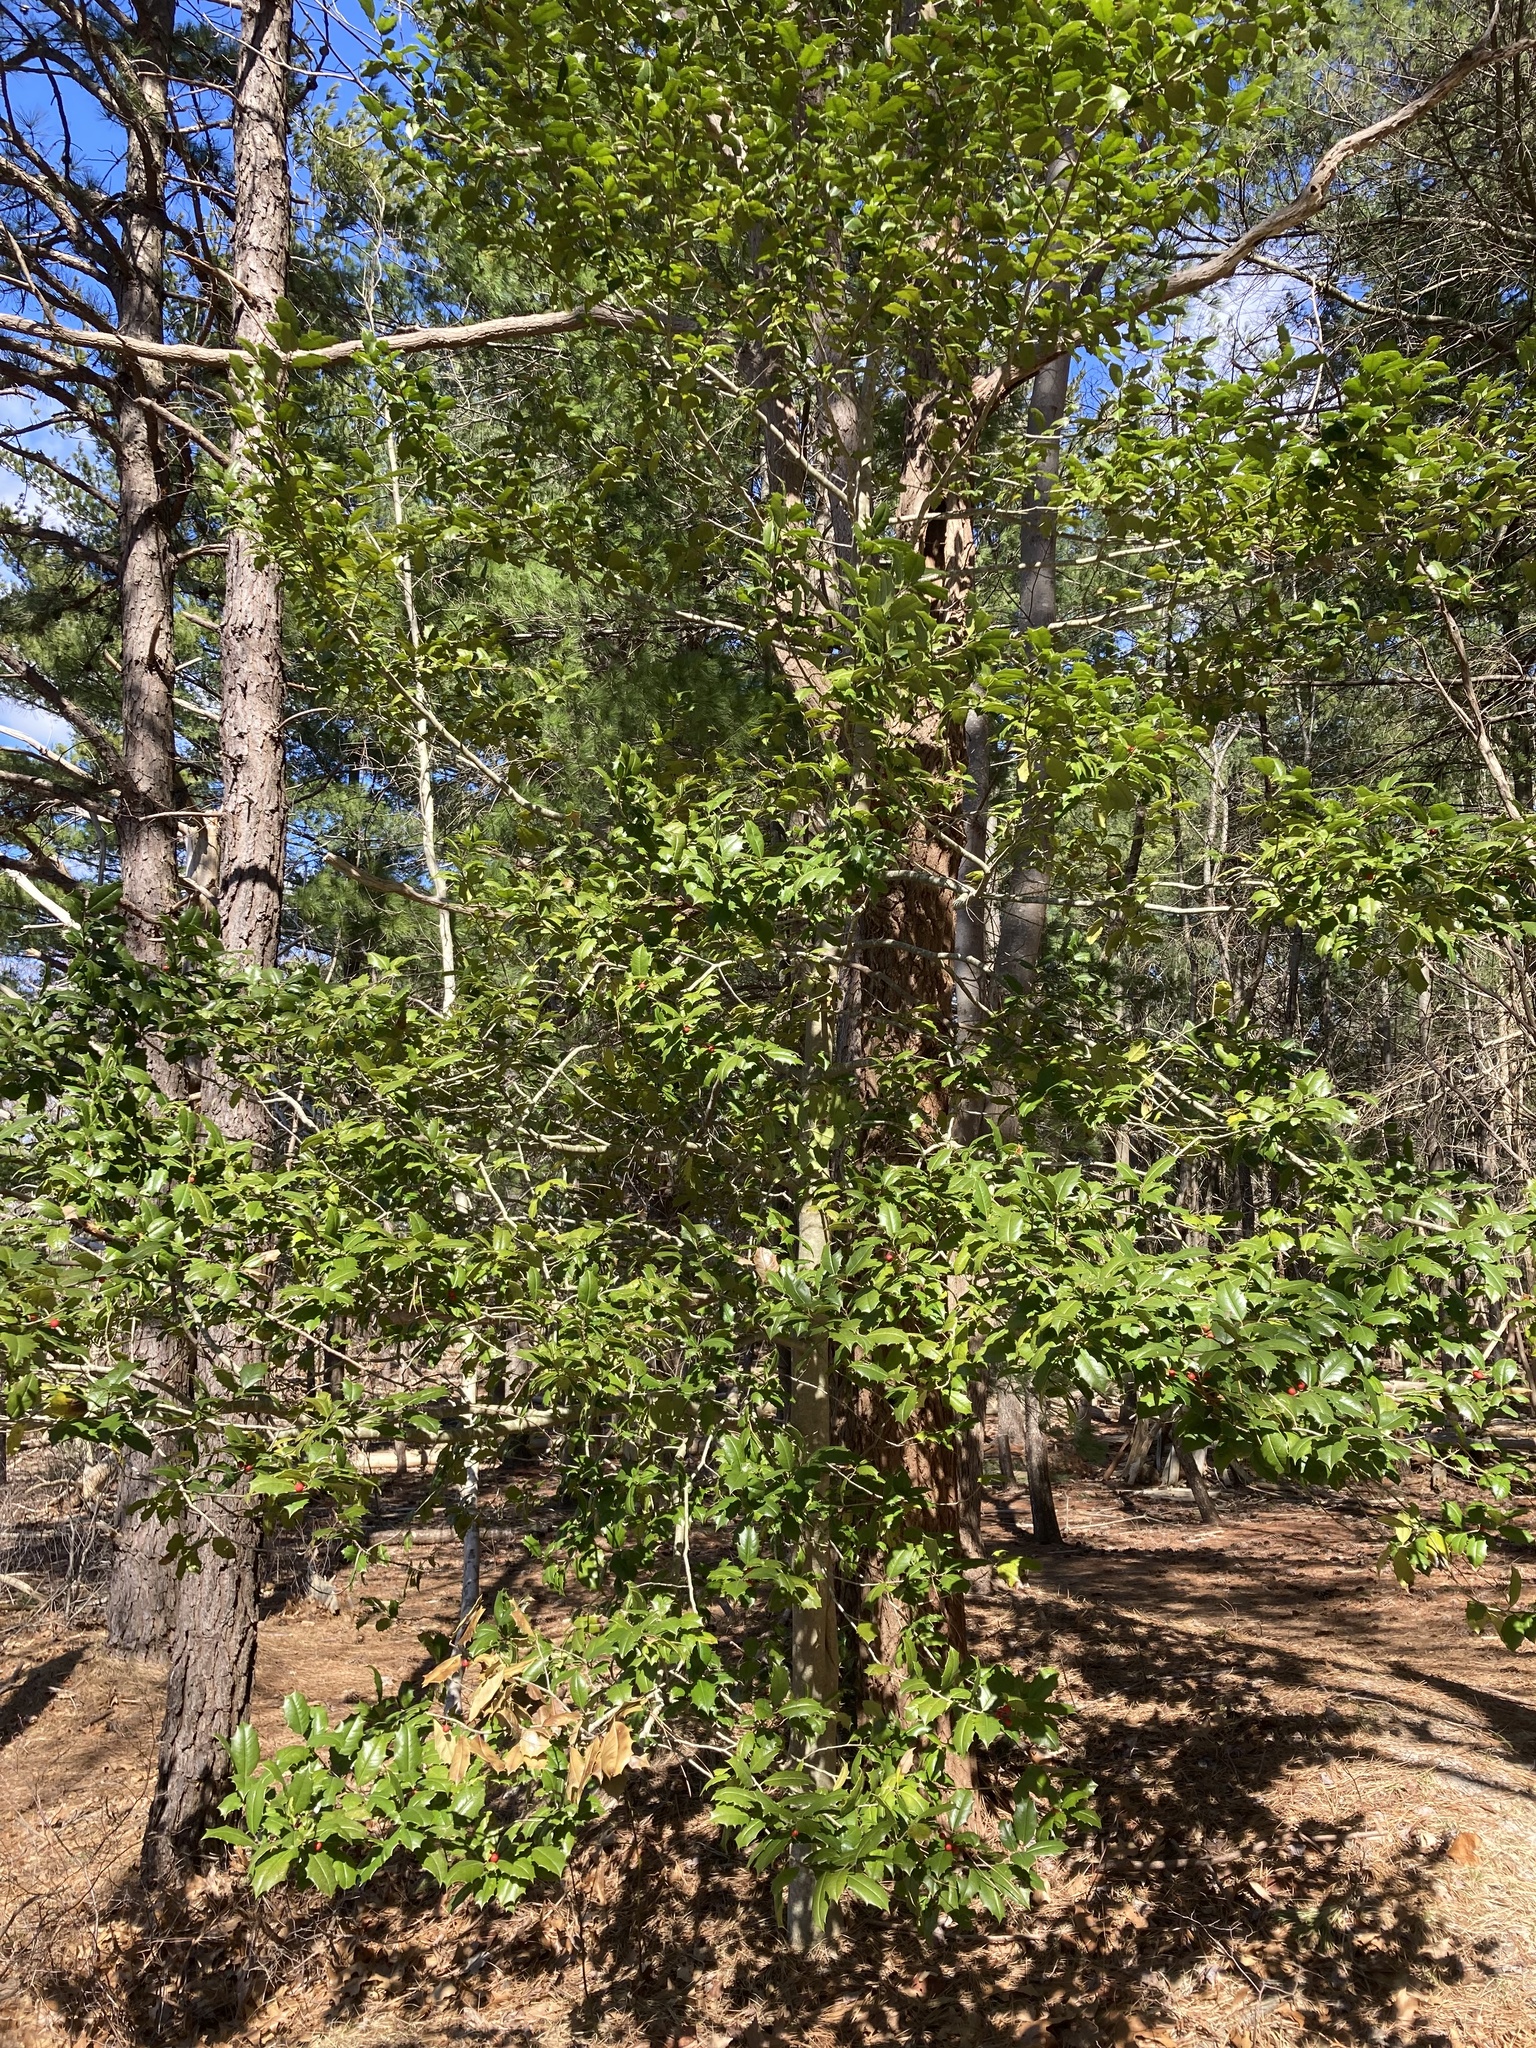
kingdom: Plantae
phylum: Tracheophyta
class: Magnoliopsida
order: Aquifoliales
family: Aquifoliaceae
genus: Ilex
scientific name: Ilex opaca
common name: American holly
